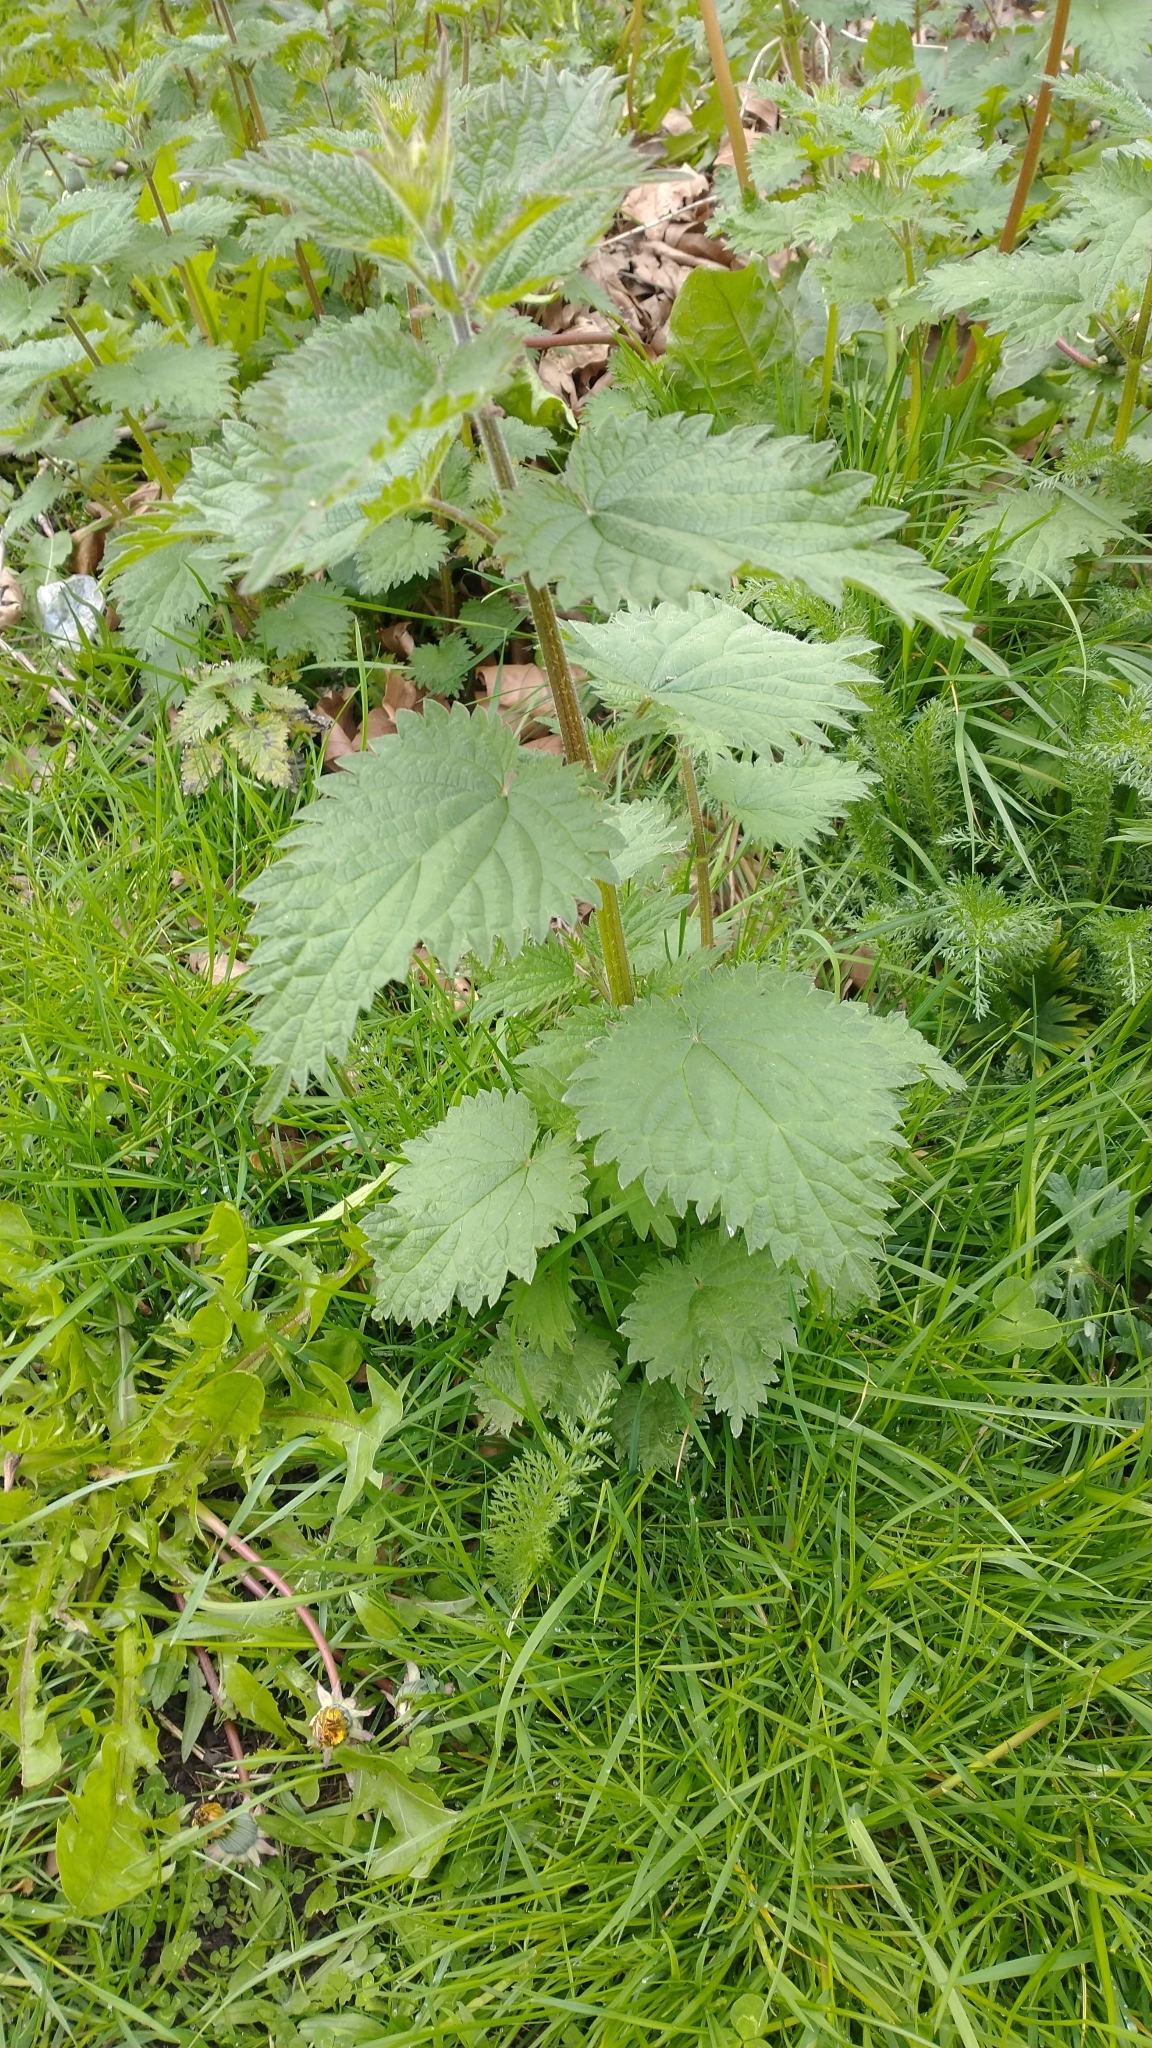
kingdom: Plantae
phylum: Tracheophyta
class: Magnoliopsida
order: Rosales
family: Urticaceae
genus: Urtica
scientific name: Urtica dioica
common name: Common nettle
